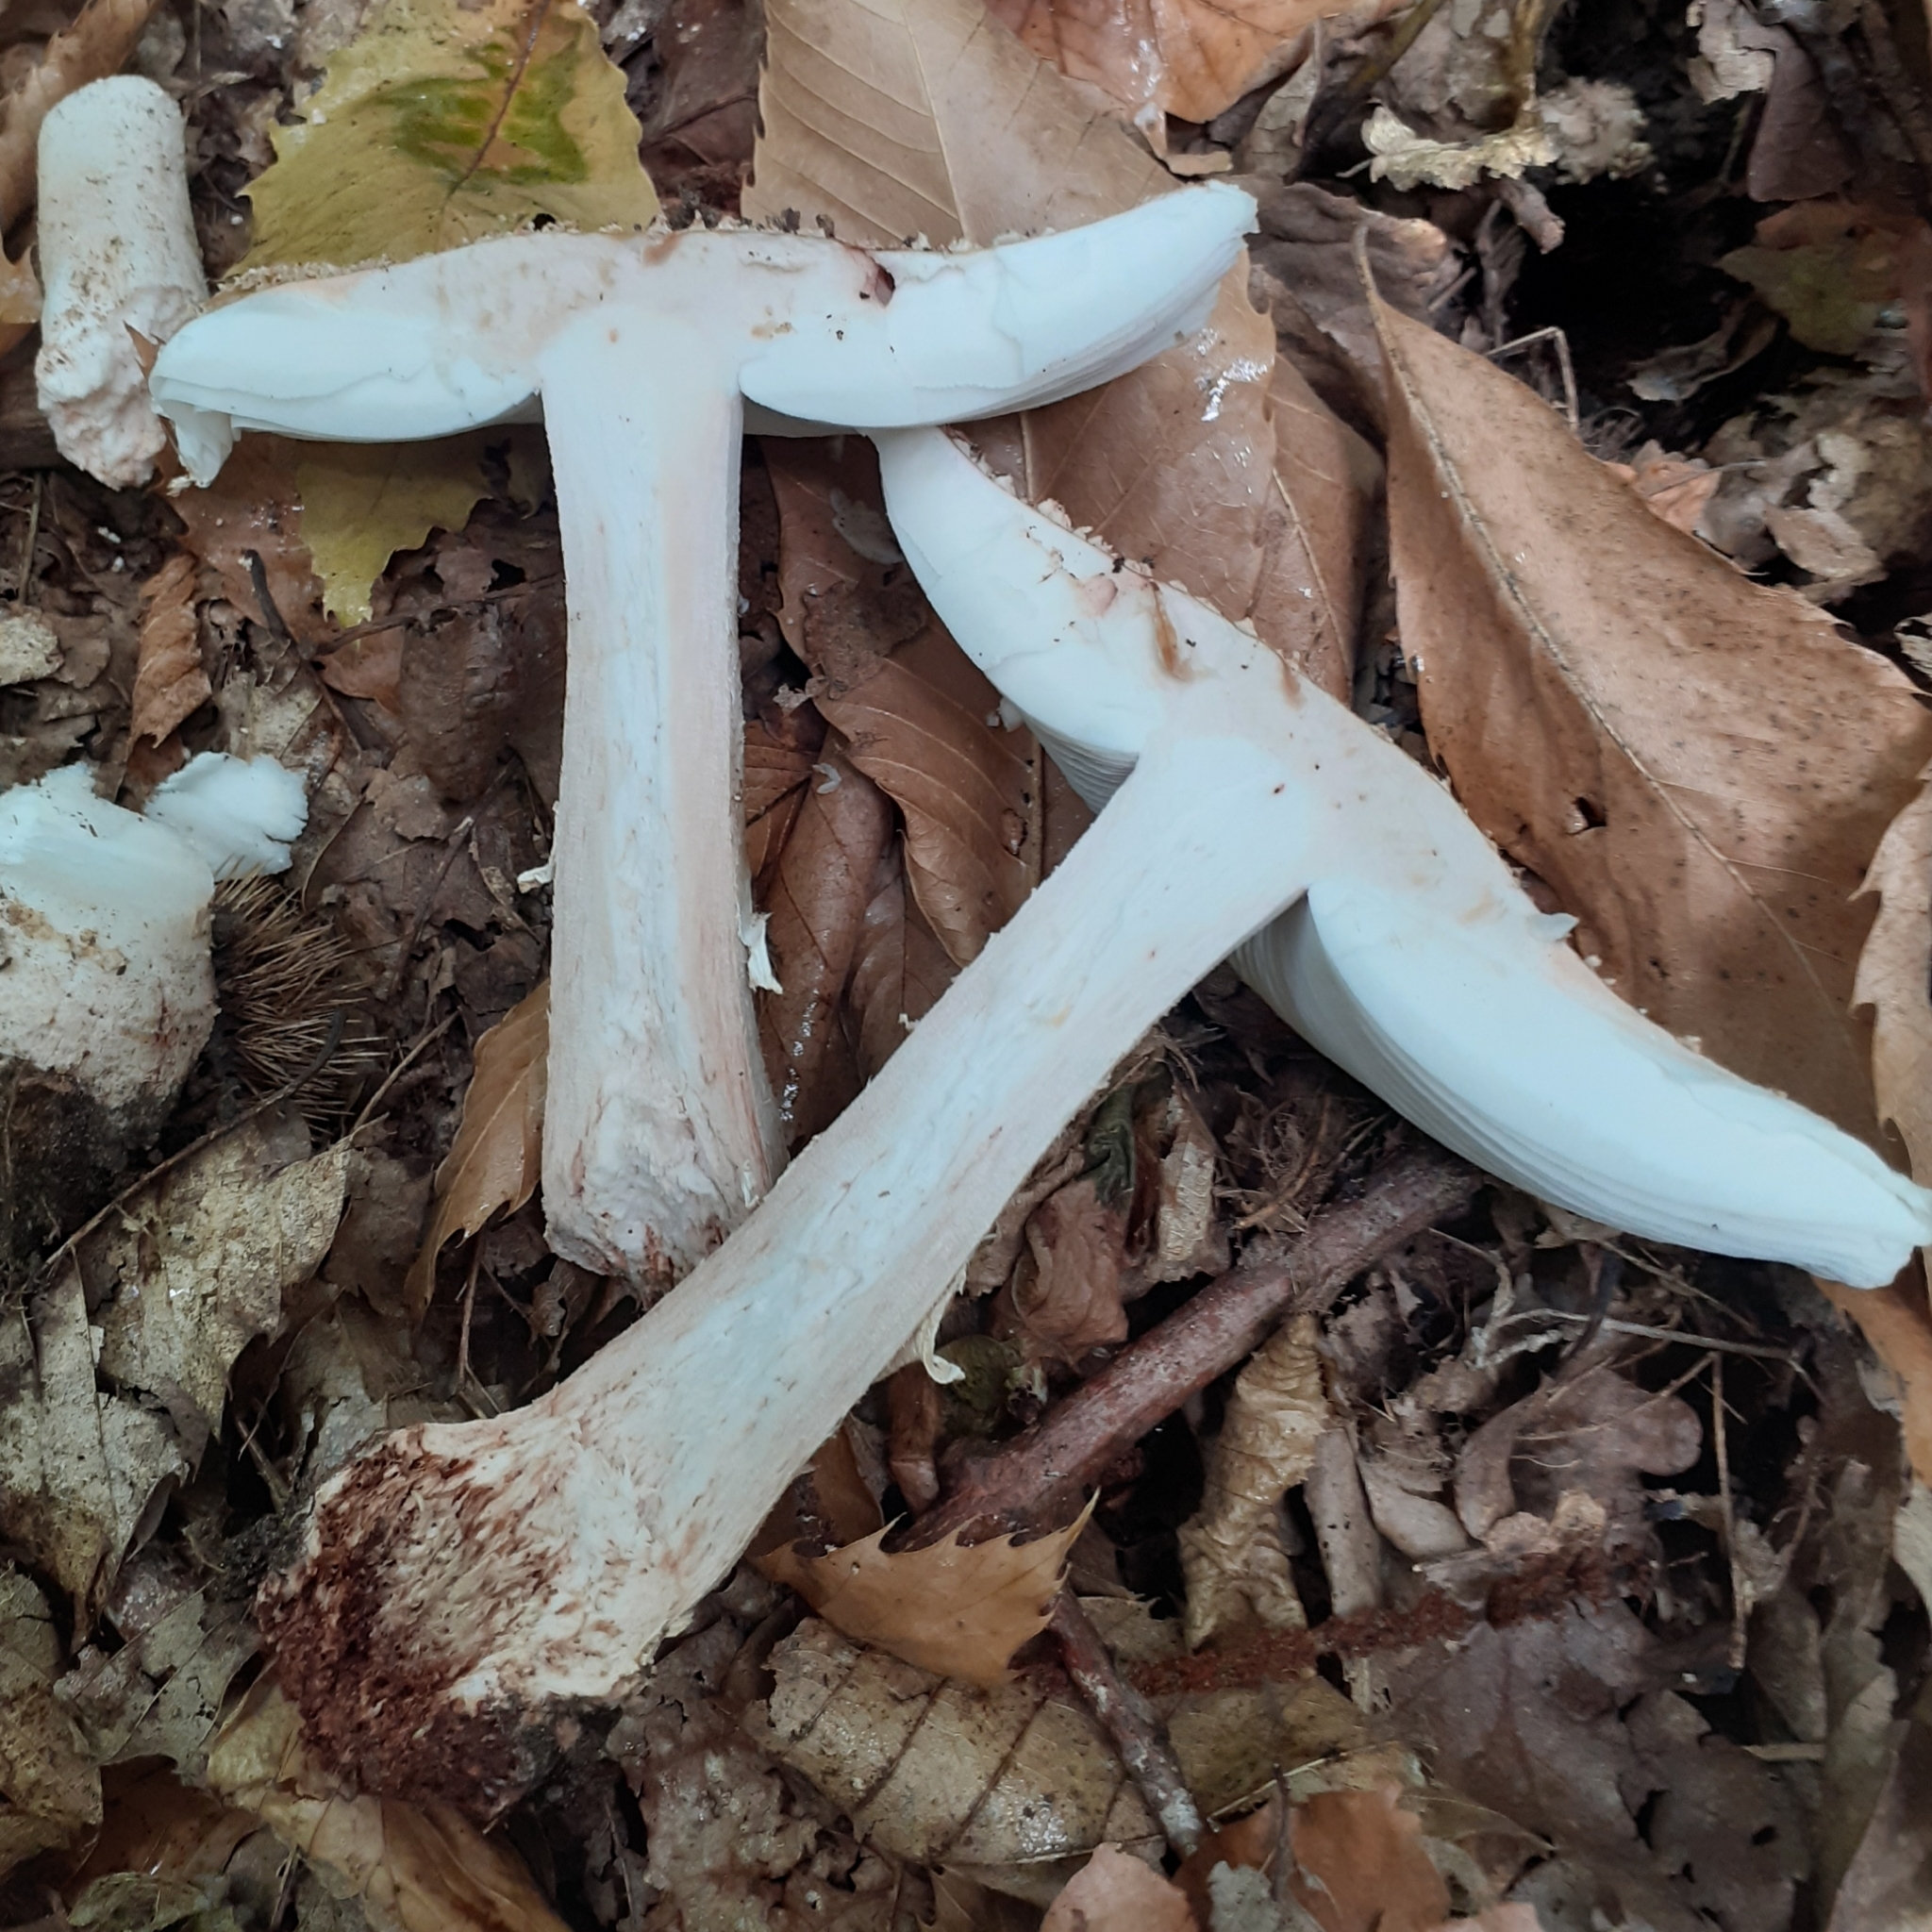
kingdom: Fungi
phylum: Basidiomycota
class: Agaricomycetes
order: Agaricales
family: Amanitaceae
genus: Amanita
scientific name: Amanita rubescens
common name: Blusher
